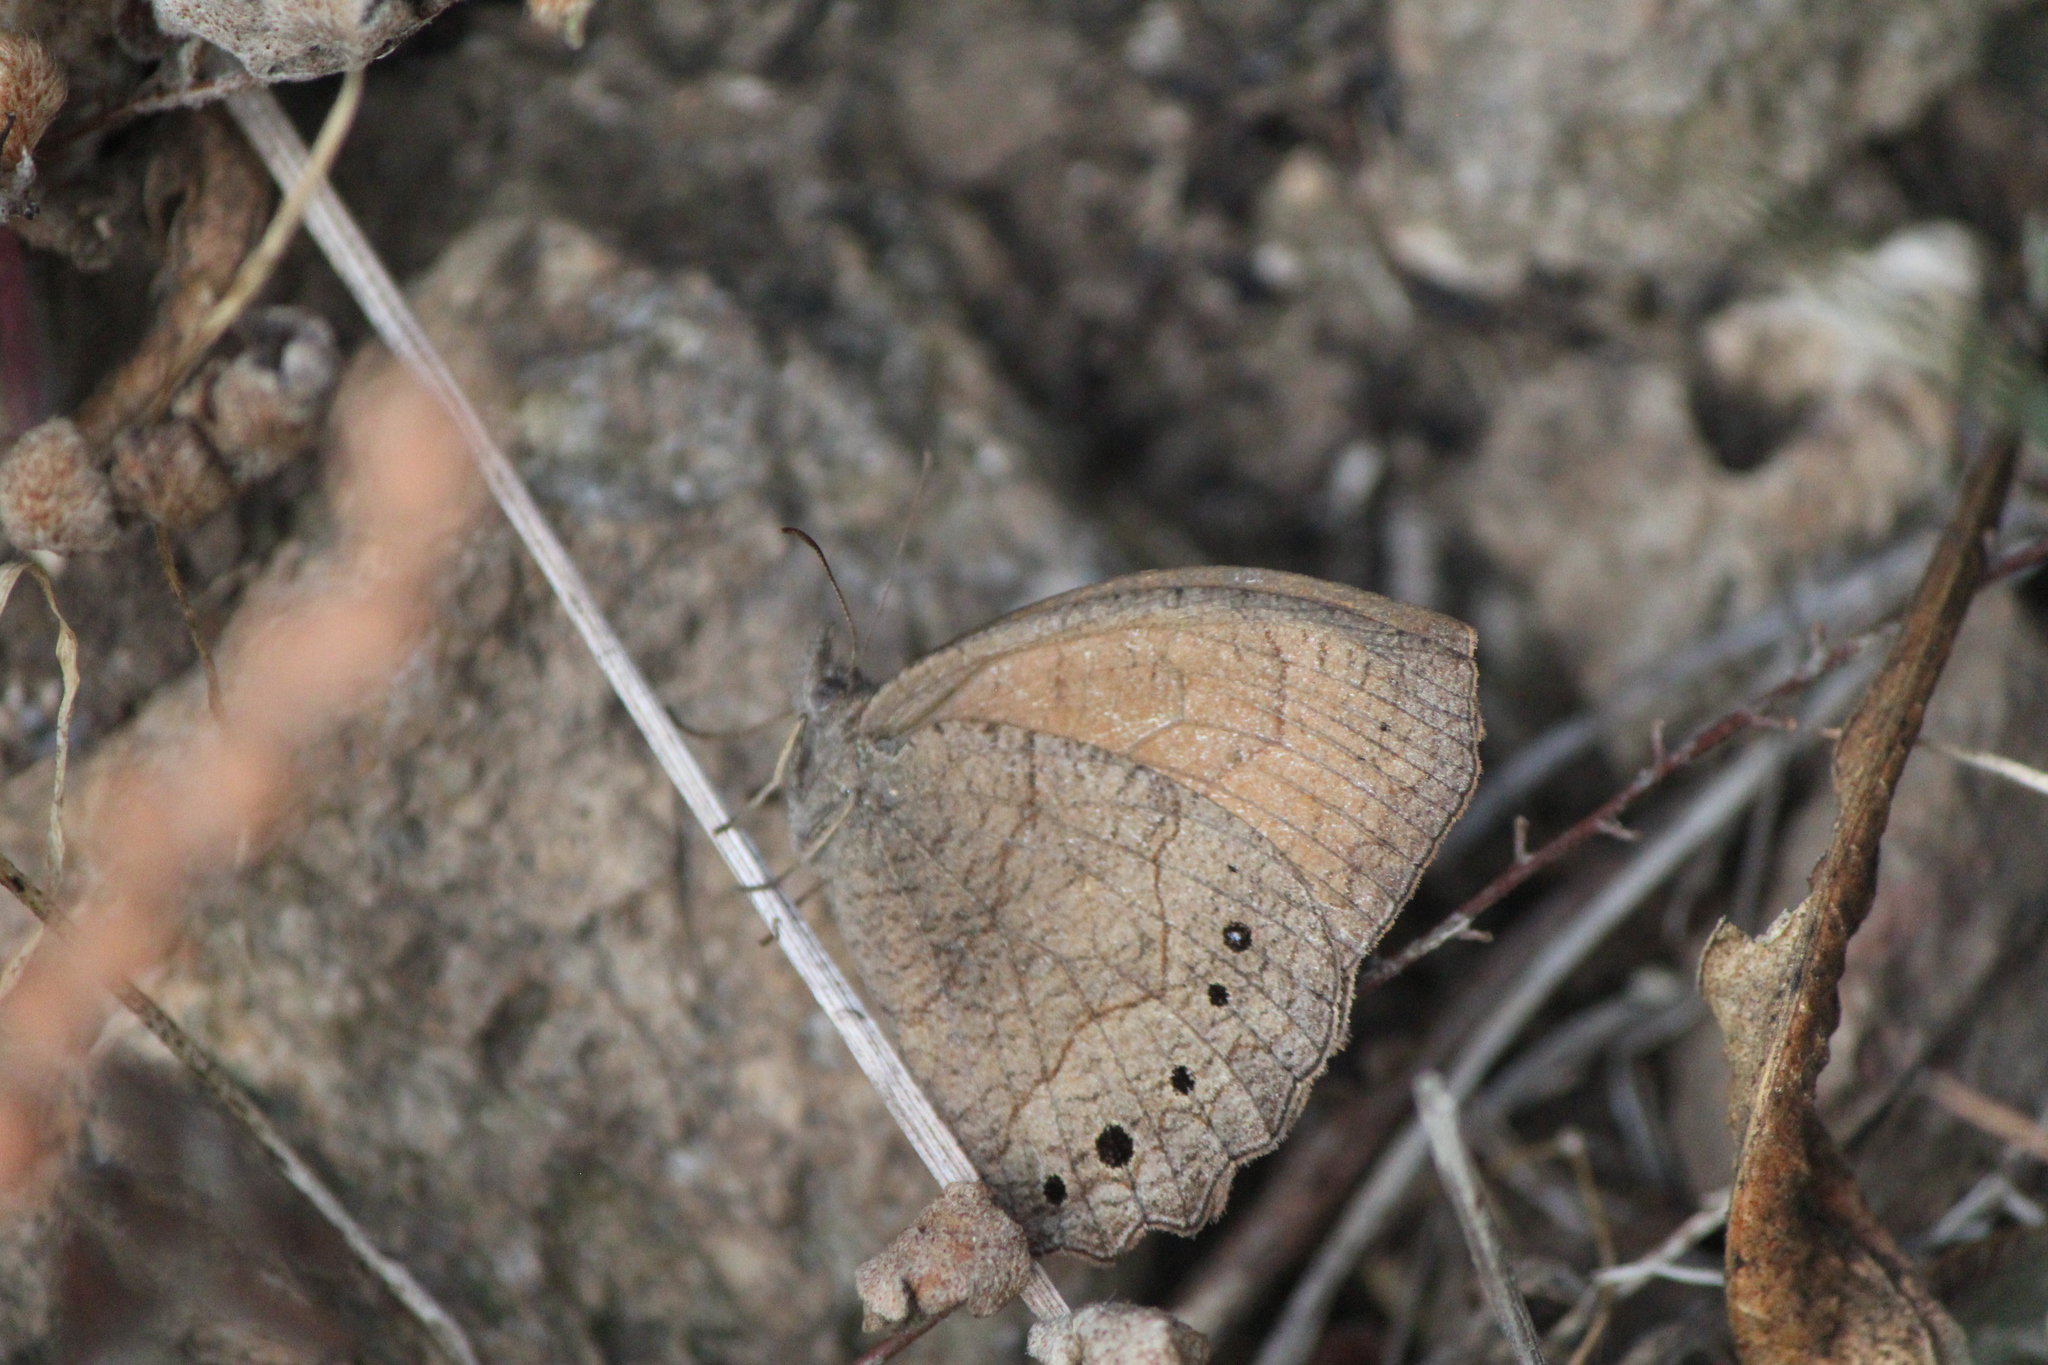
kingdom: Animalia
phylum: Arthropoda
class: Insecta
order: Lepidoptera
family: Nymphalidae
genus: Pindis
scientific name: Pindis squamistriga
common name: Variable satyr
